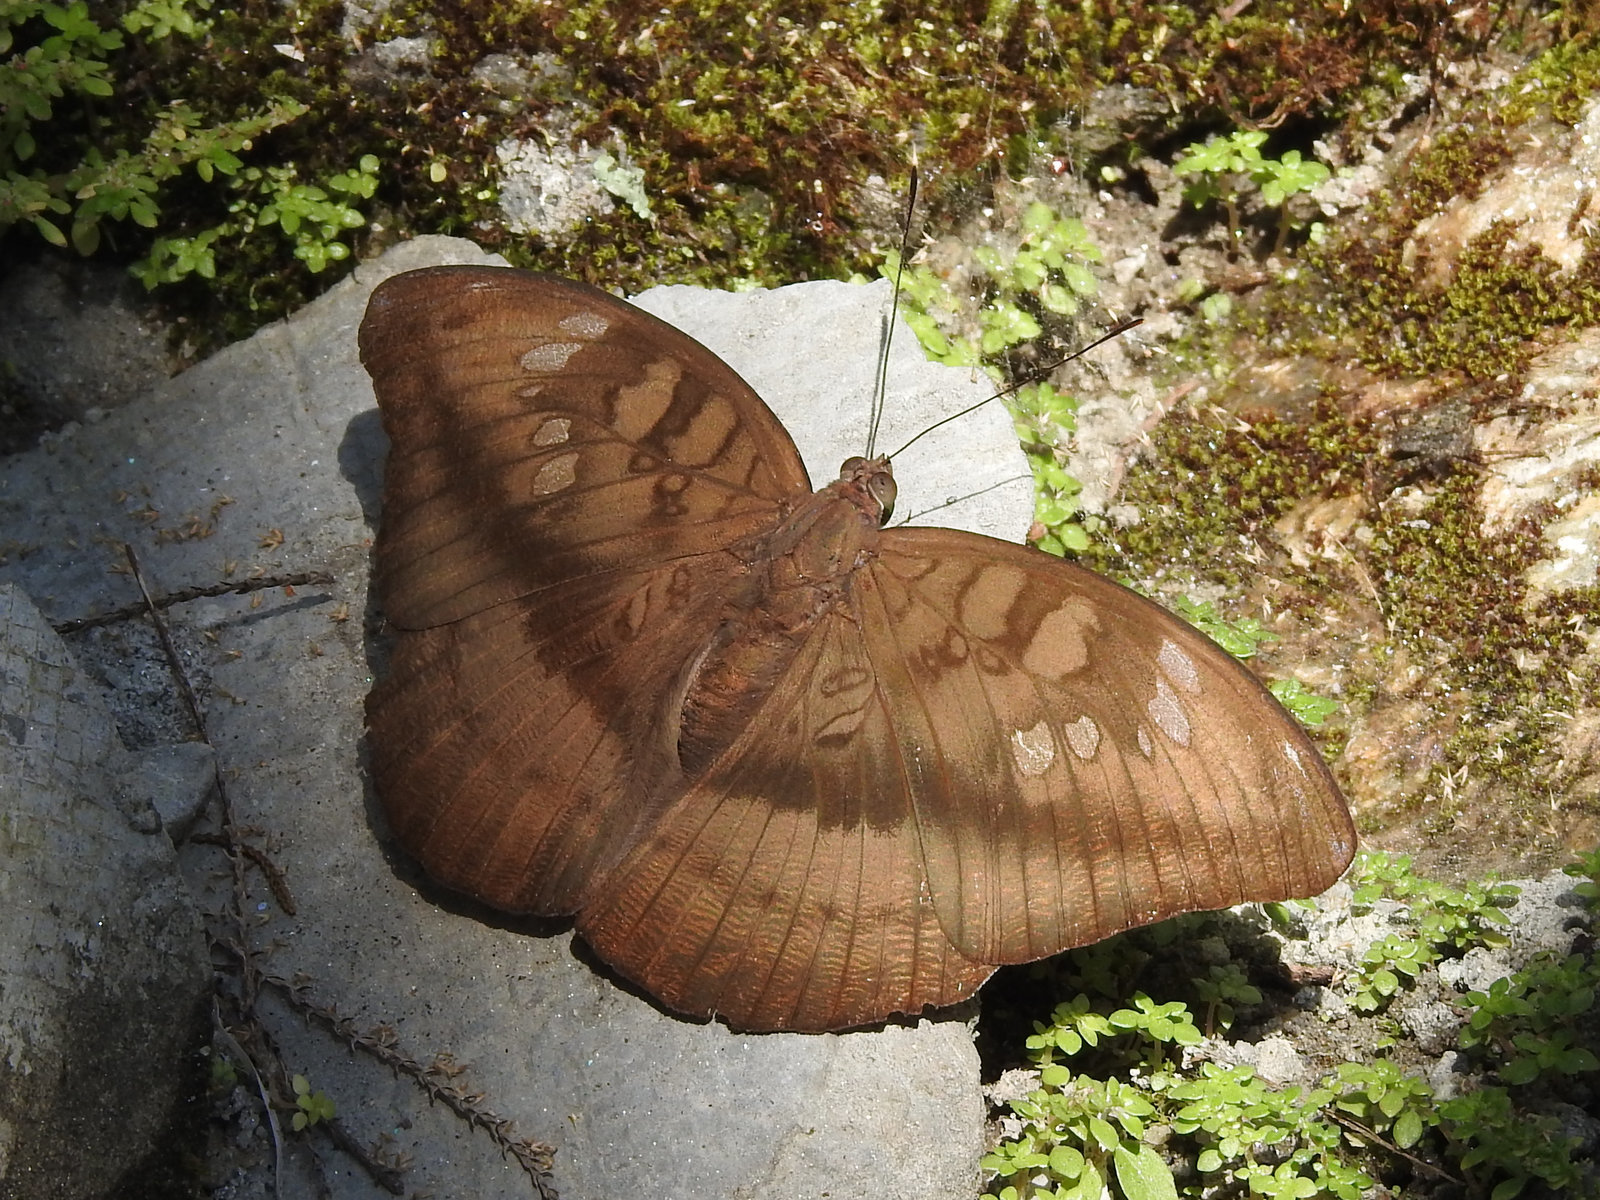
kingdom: Animalia
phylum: Arthropoda
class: Insecta
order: Lepidoptera
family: Nymphalidae
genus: Euthalia
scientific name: Euthalia telchinia
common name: Blue baron
